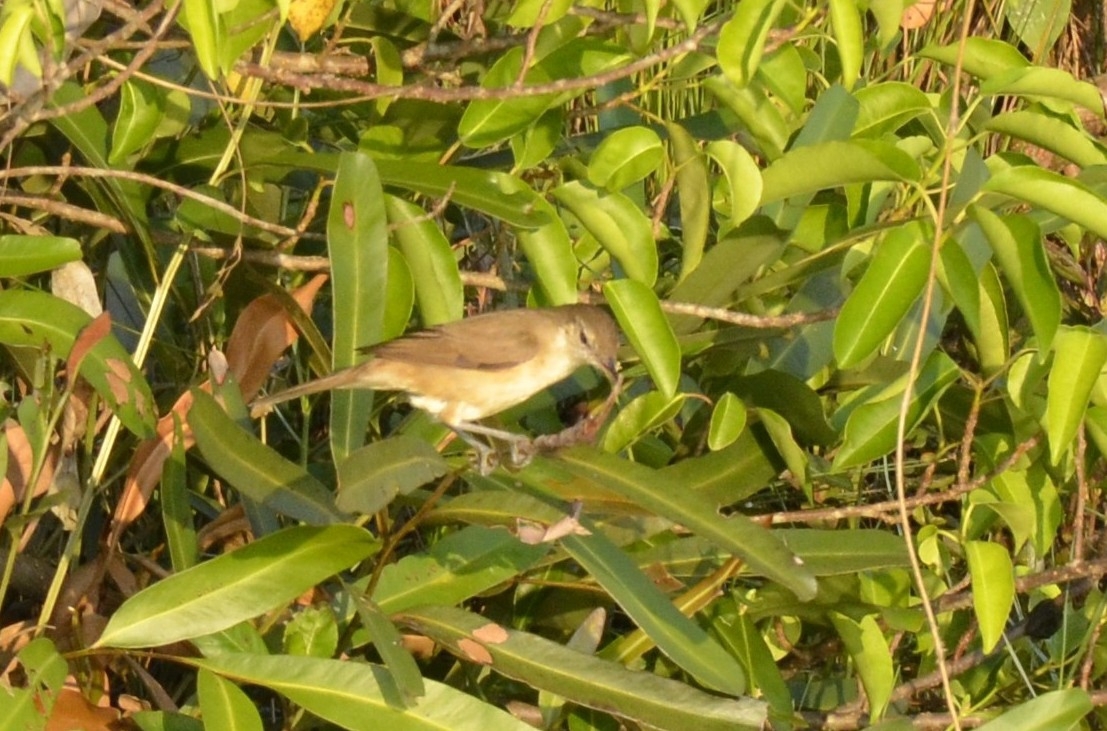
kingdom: Animalia
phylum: Chordata
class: Aves
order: Passeriformes
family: Acrocephalidae
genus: Acrocephalus
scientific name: Acrocephalus stentoreus
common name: Clamorous reed warbler
